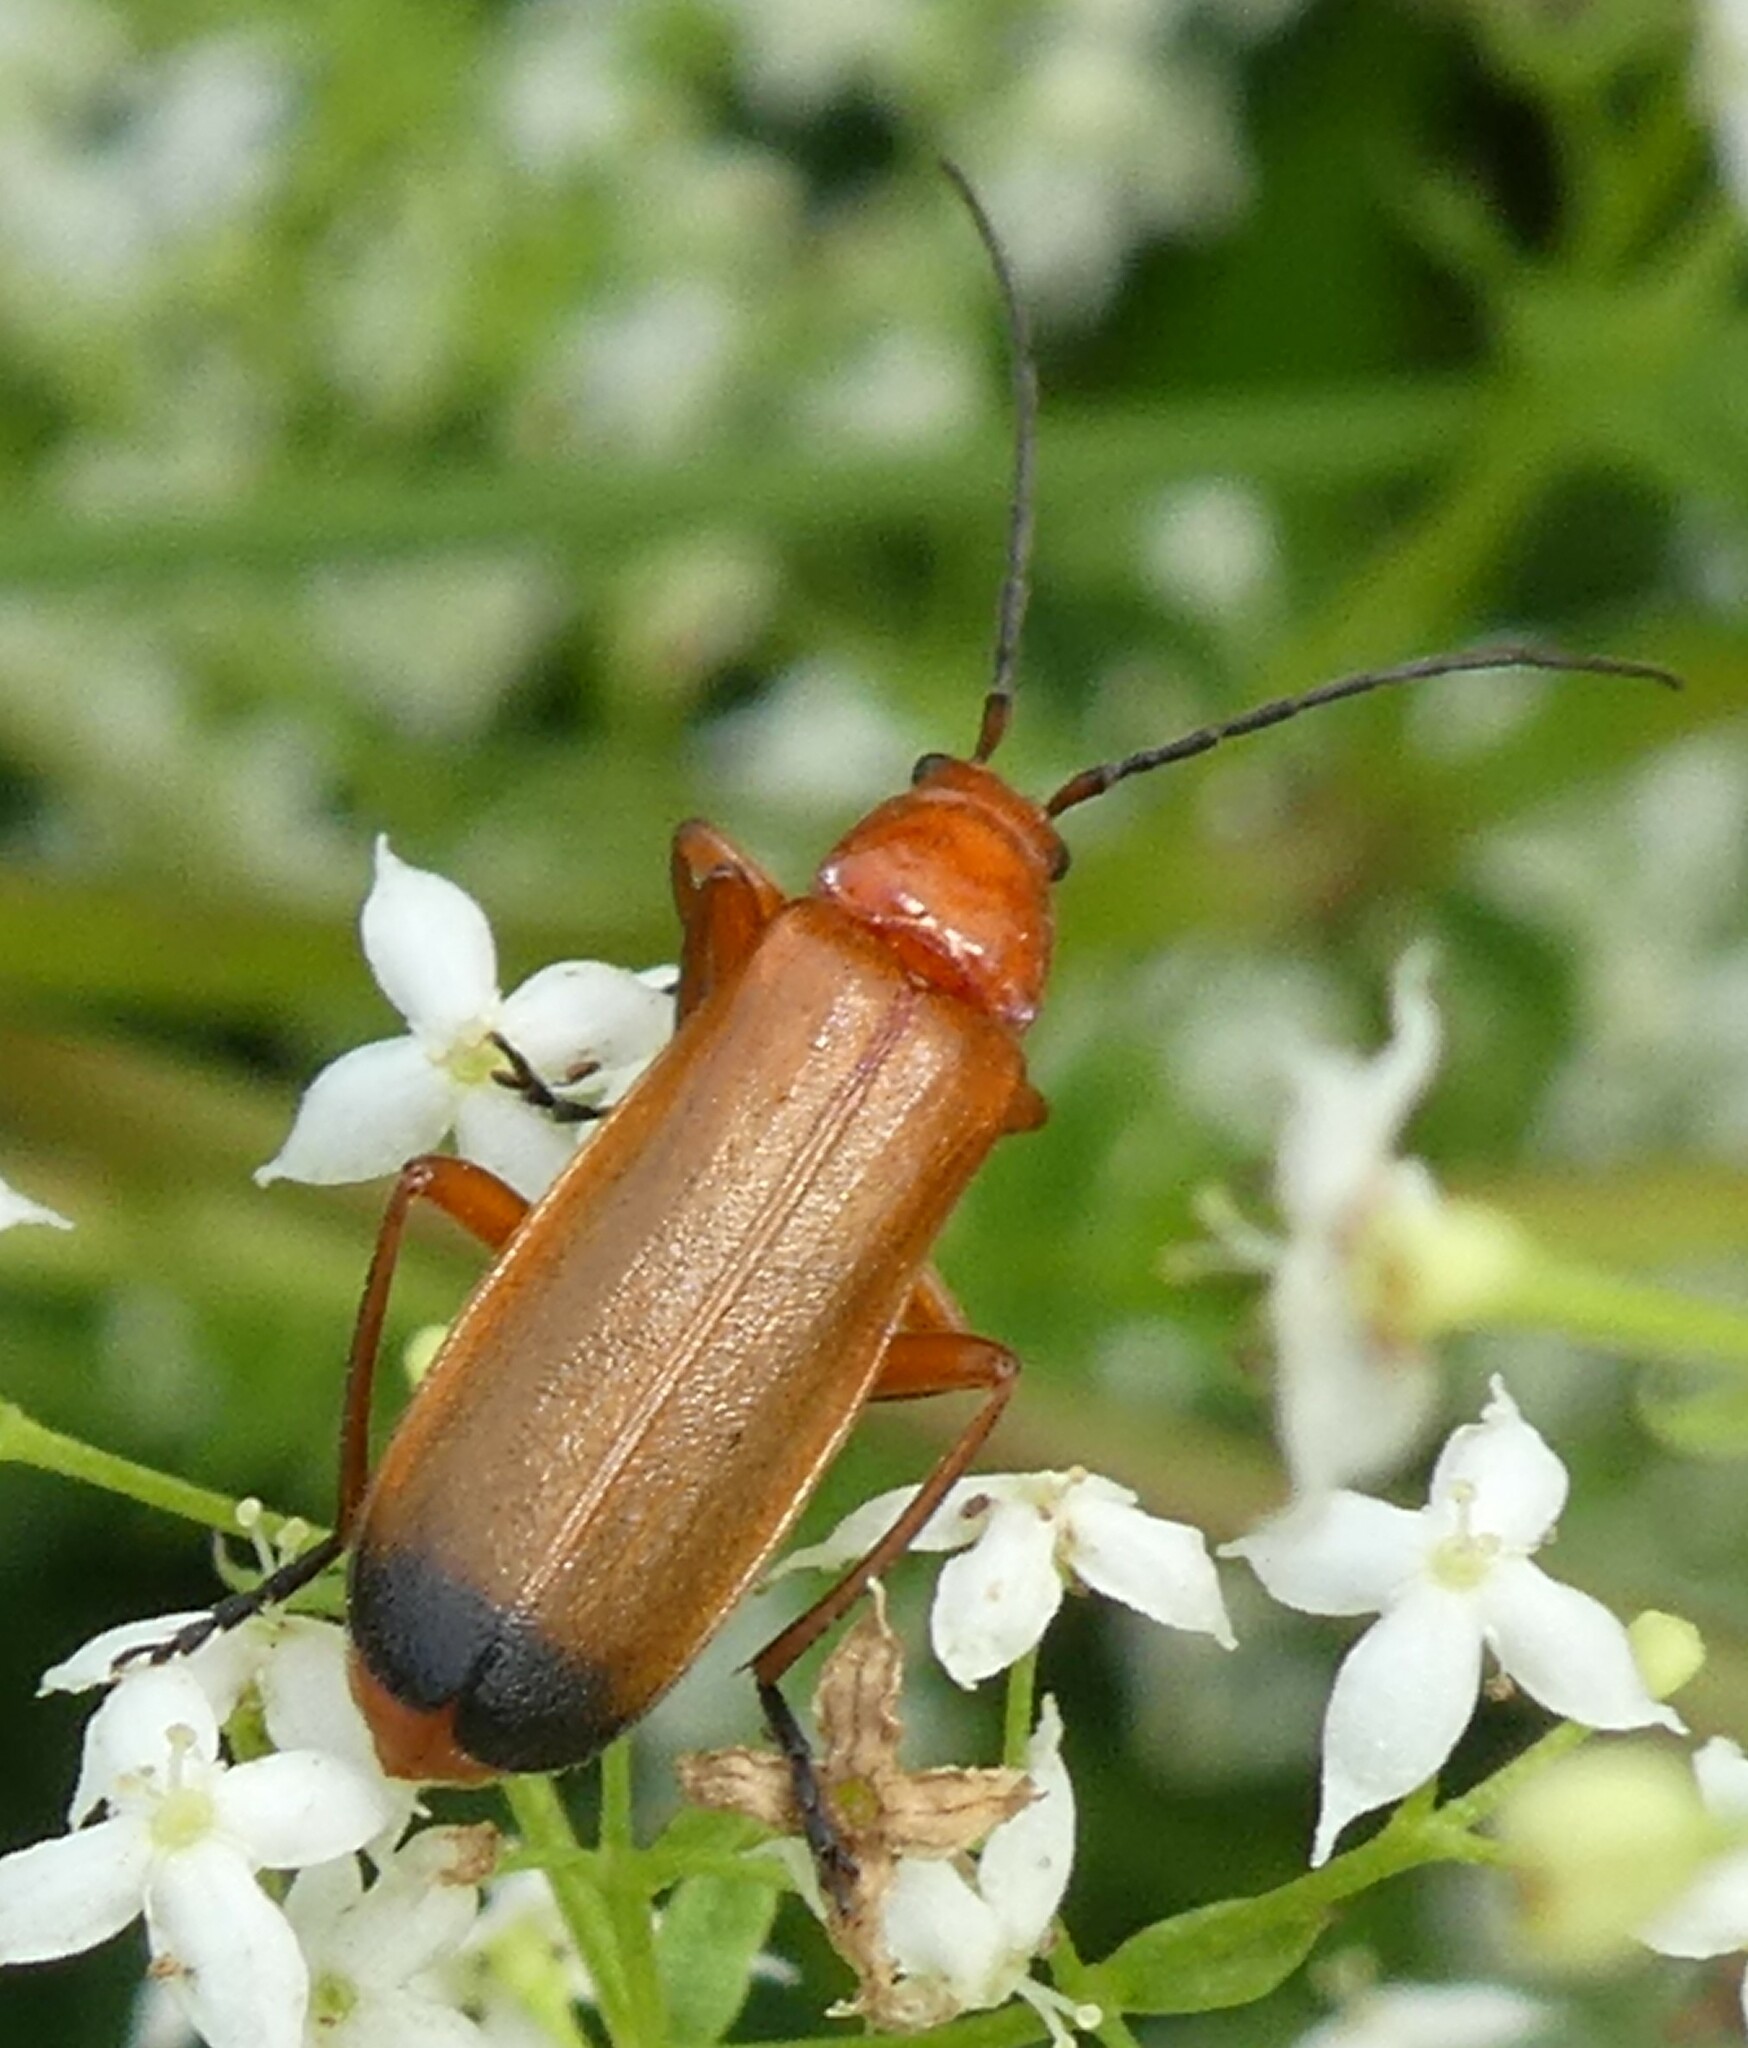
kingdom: Animalia
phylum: Arthropoda
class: Insecta
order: Coleoptera
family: Cantharidae
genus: Rhagonycha
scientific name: Rhagonycha fulva
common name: Common red soldier beetle
